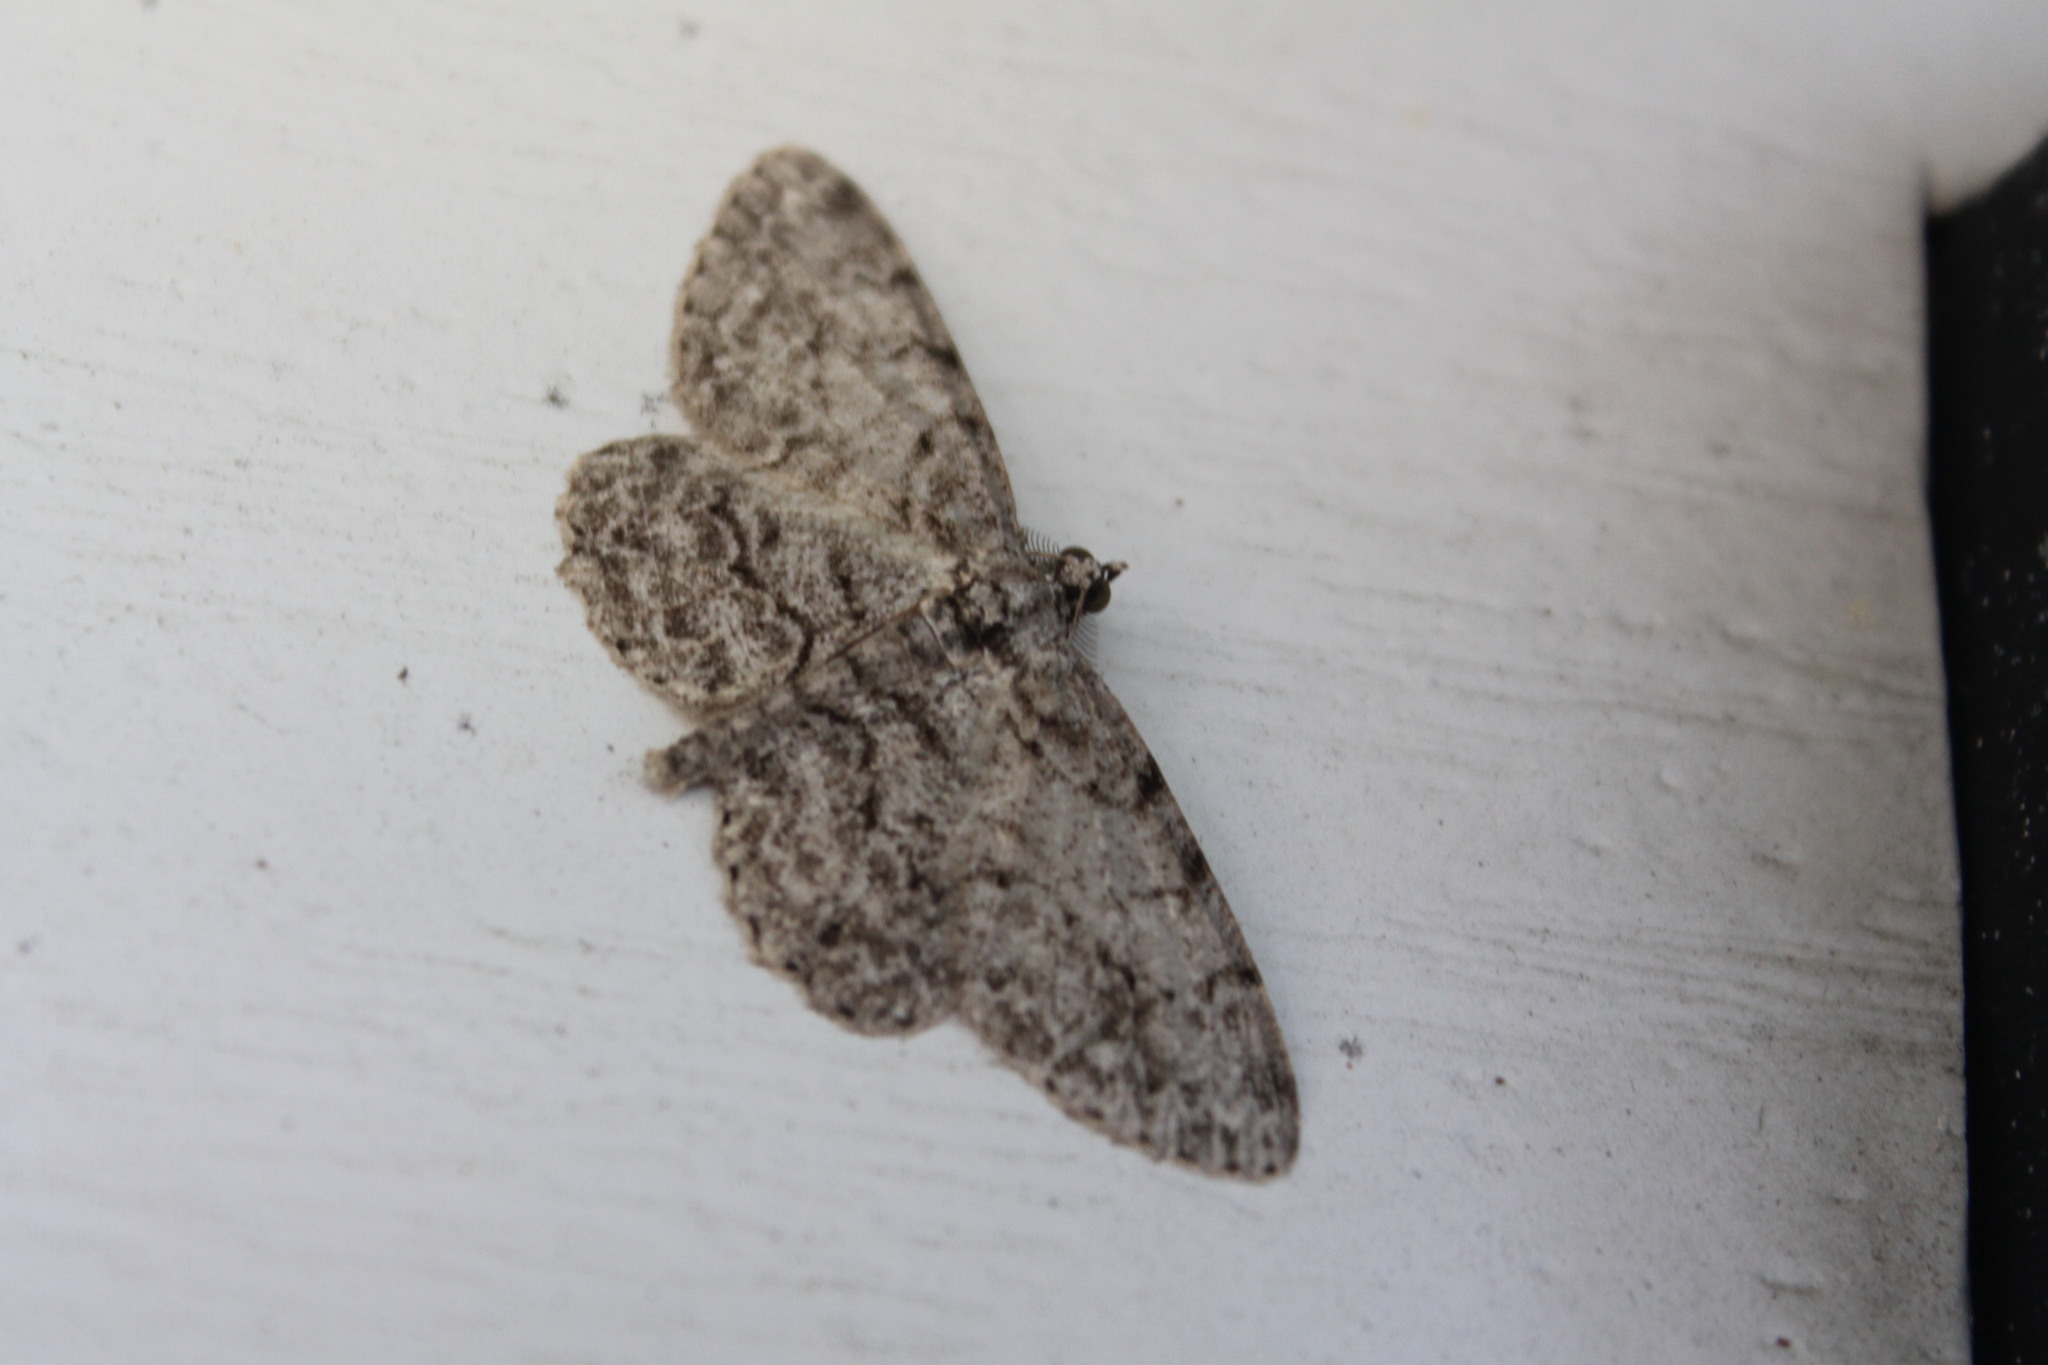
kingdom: Animalia
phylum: Arthropoda
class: Insecta
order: Lepidoptera
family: Geometridae
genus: Protoboarmia
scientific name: Protoboarmia porcelaria
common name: Porcelain gray
